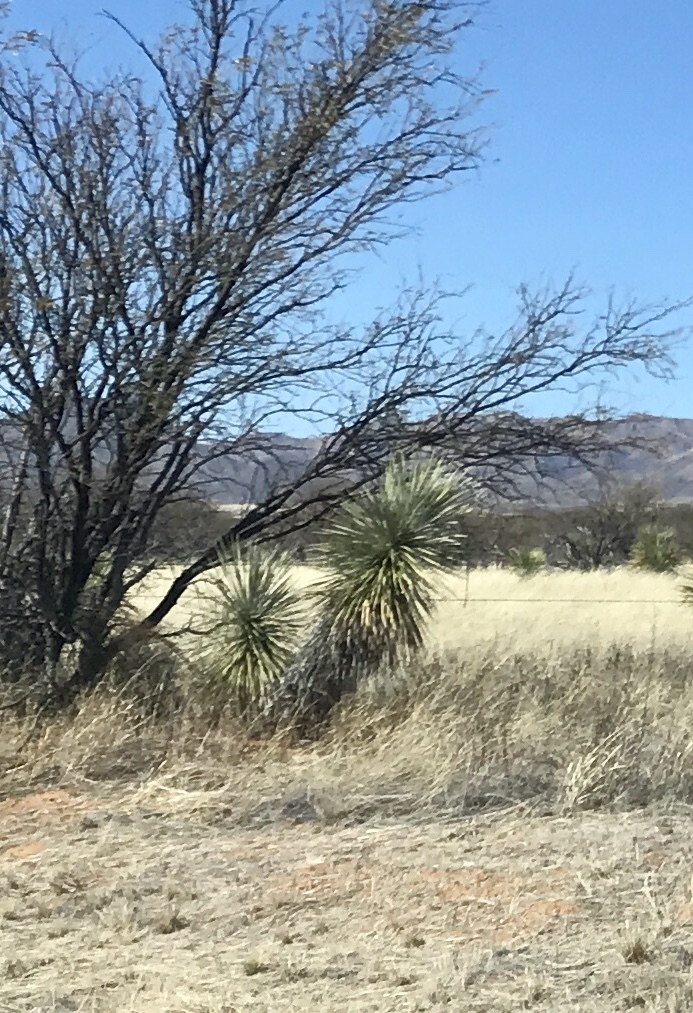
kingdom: Plantae
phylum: Tracheophyta
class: Liliopsida
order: Asparagales
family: Asparagaceae
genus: Yucca
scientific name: Yucca elata
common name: Palmella
